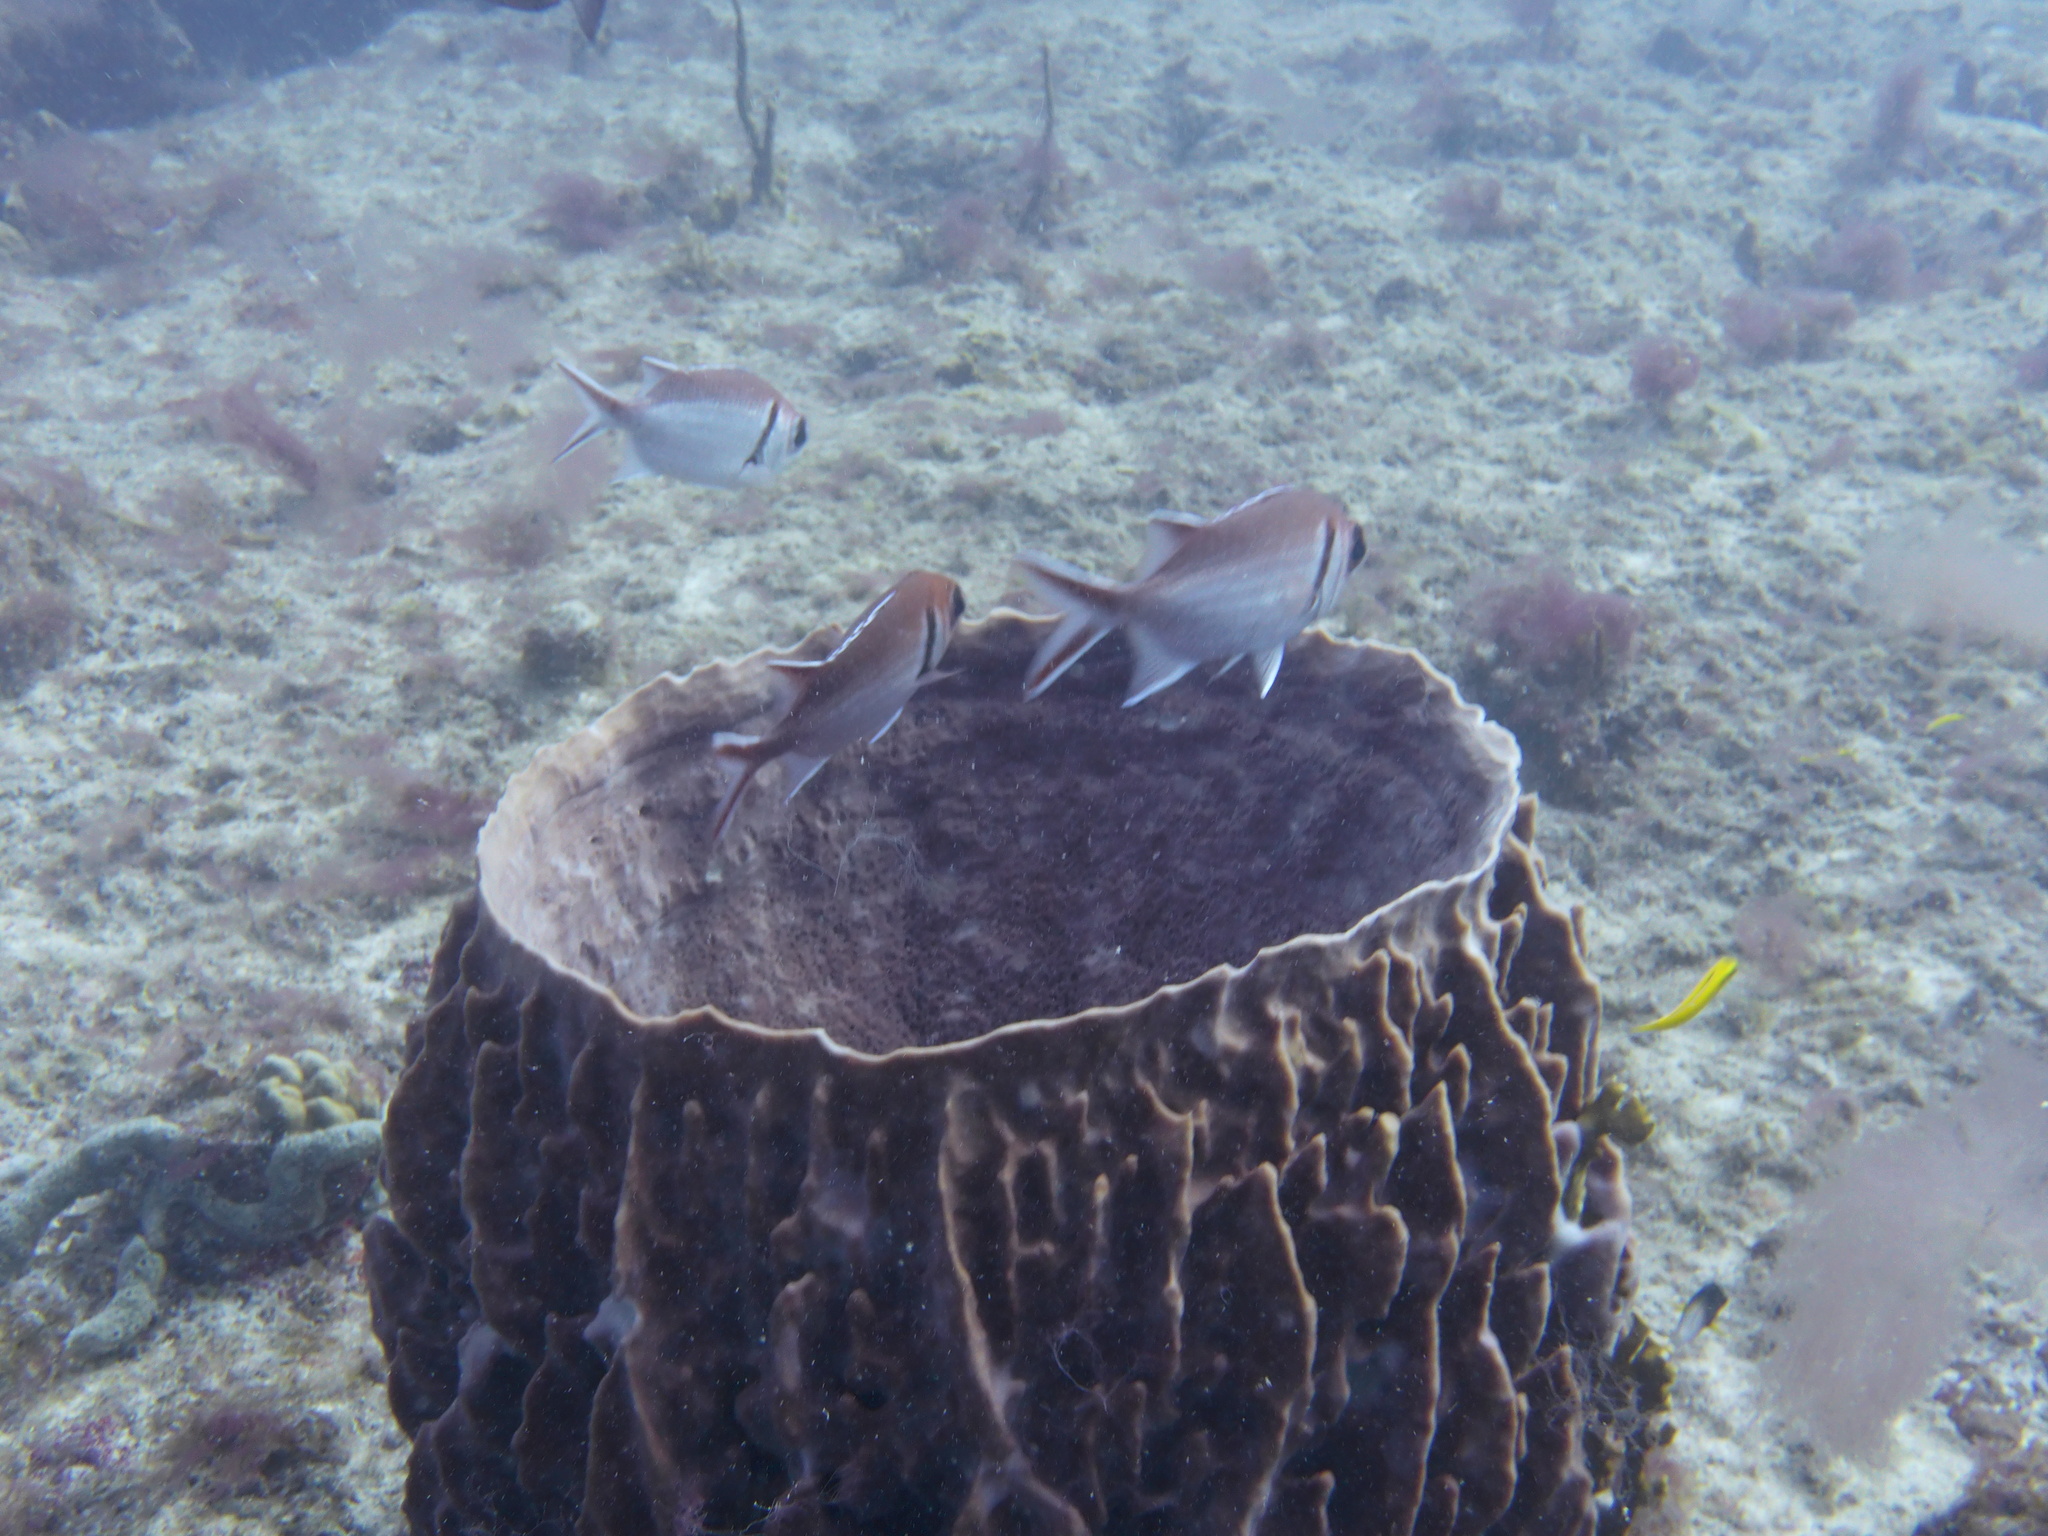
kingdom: Animalia
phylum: Chordata
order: Beryciformes
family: Holocentridae
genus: Myripristis
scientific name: Myripristis jacobus
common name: Blackbar soldierfish
